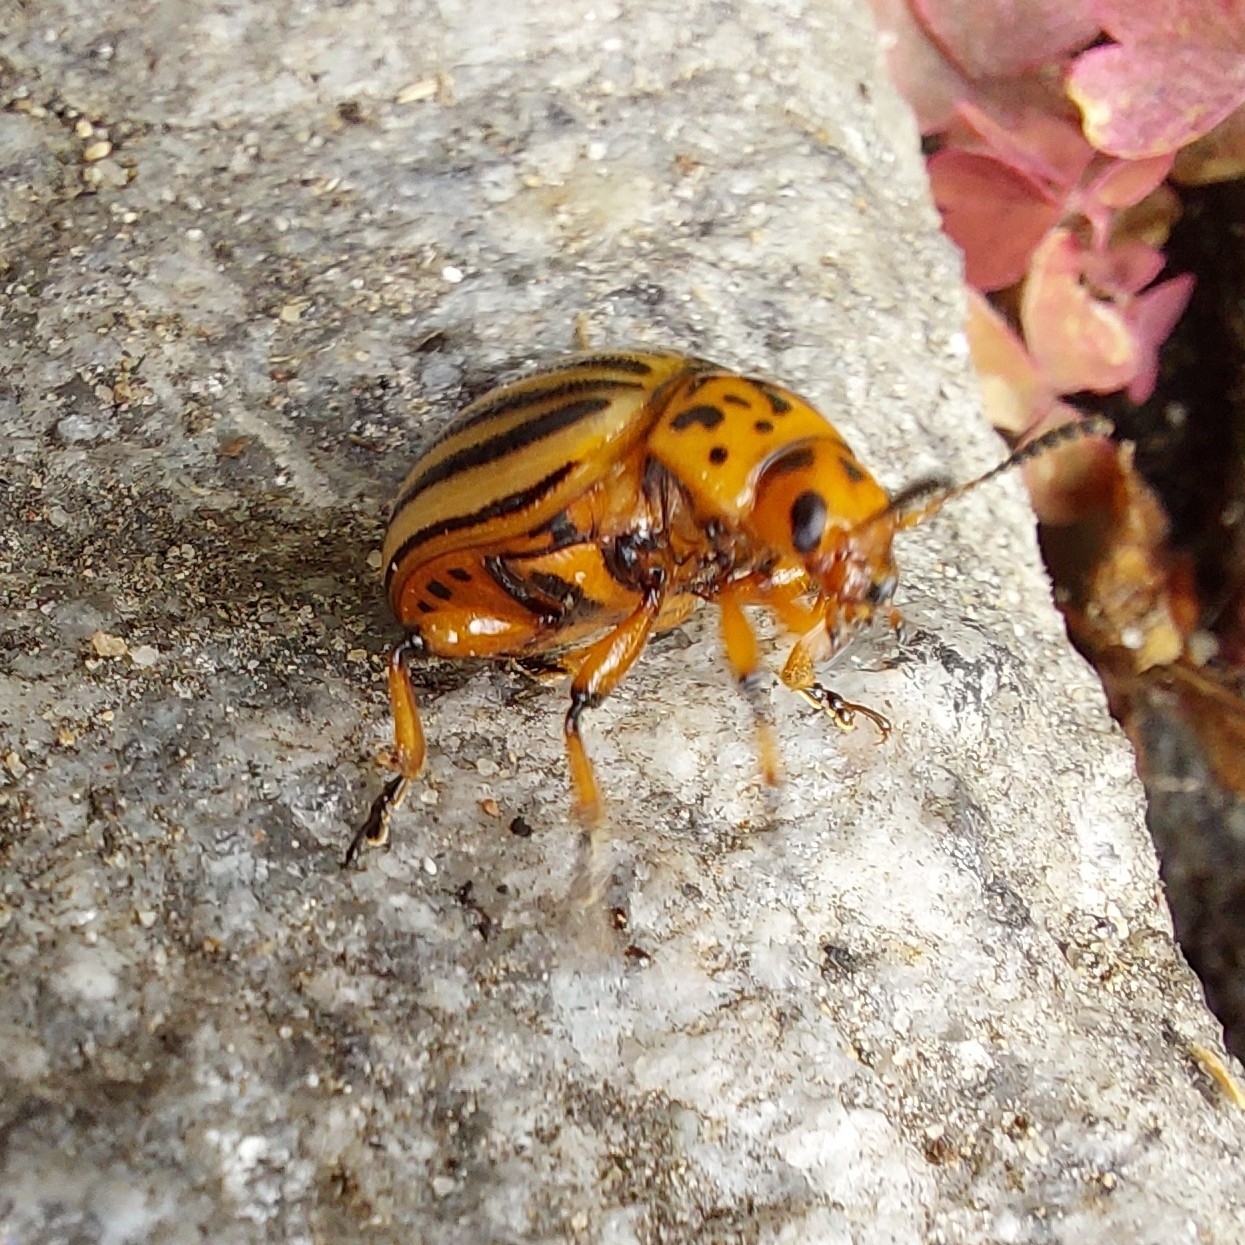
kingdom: Animalia
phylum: Arthropoda
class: Insecta
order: Coleoptera
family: Chrysomelidae
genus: Leptinotarsa
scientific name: Leptinotarsa decemlineata
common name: Colorado potato beetle
